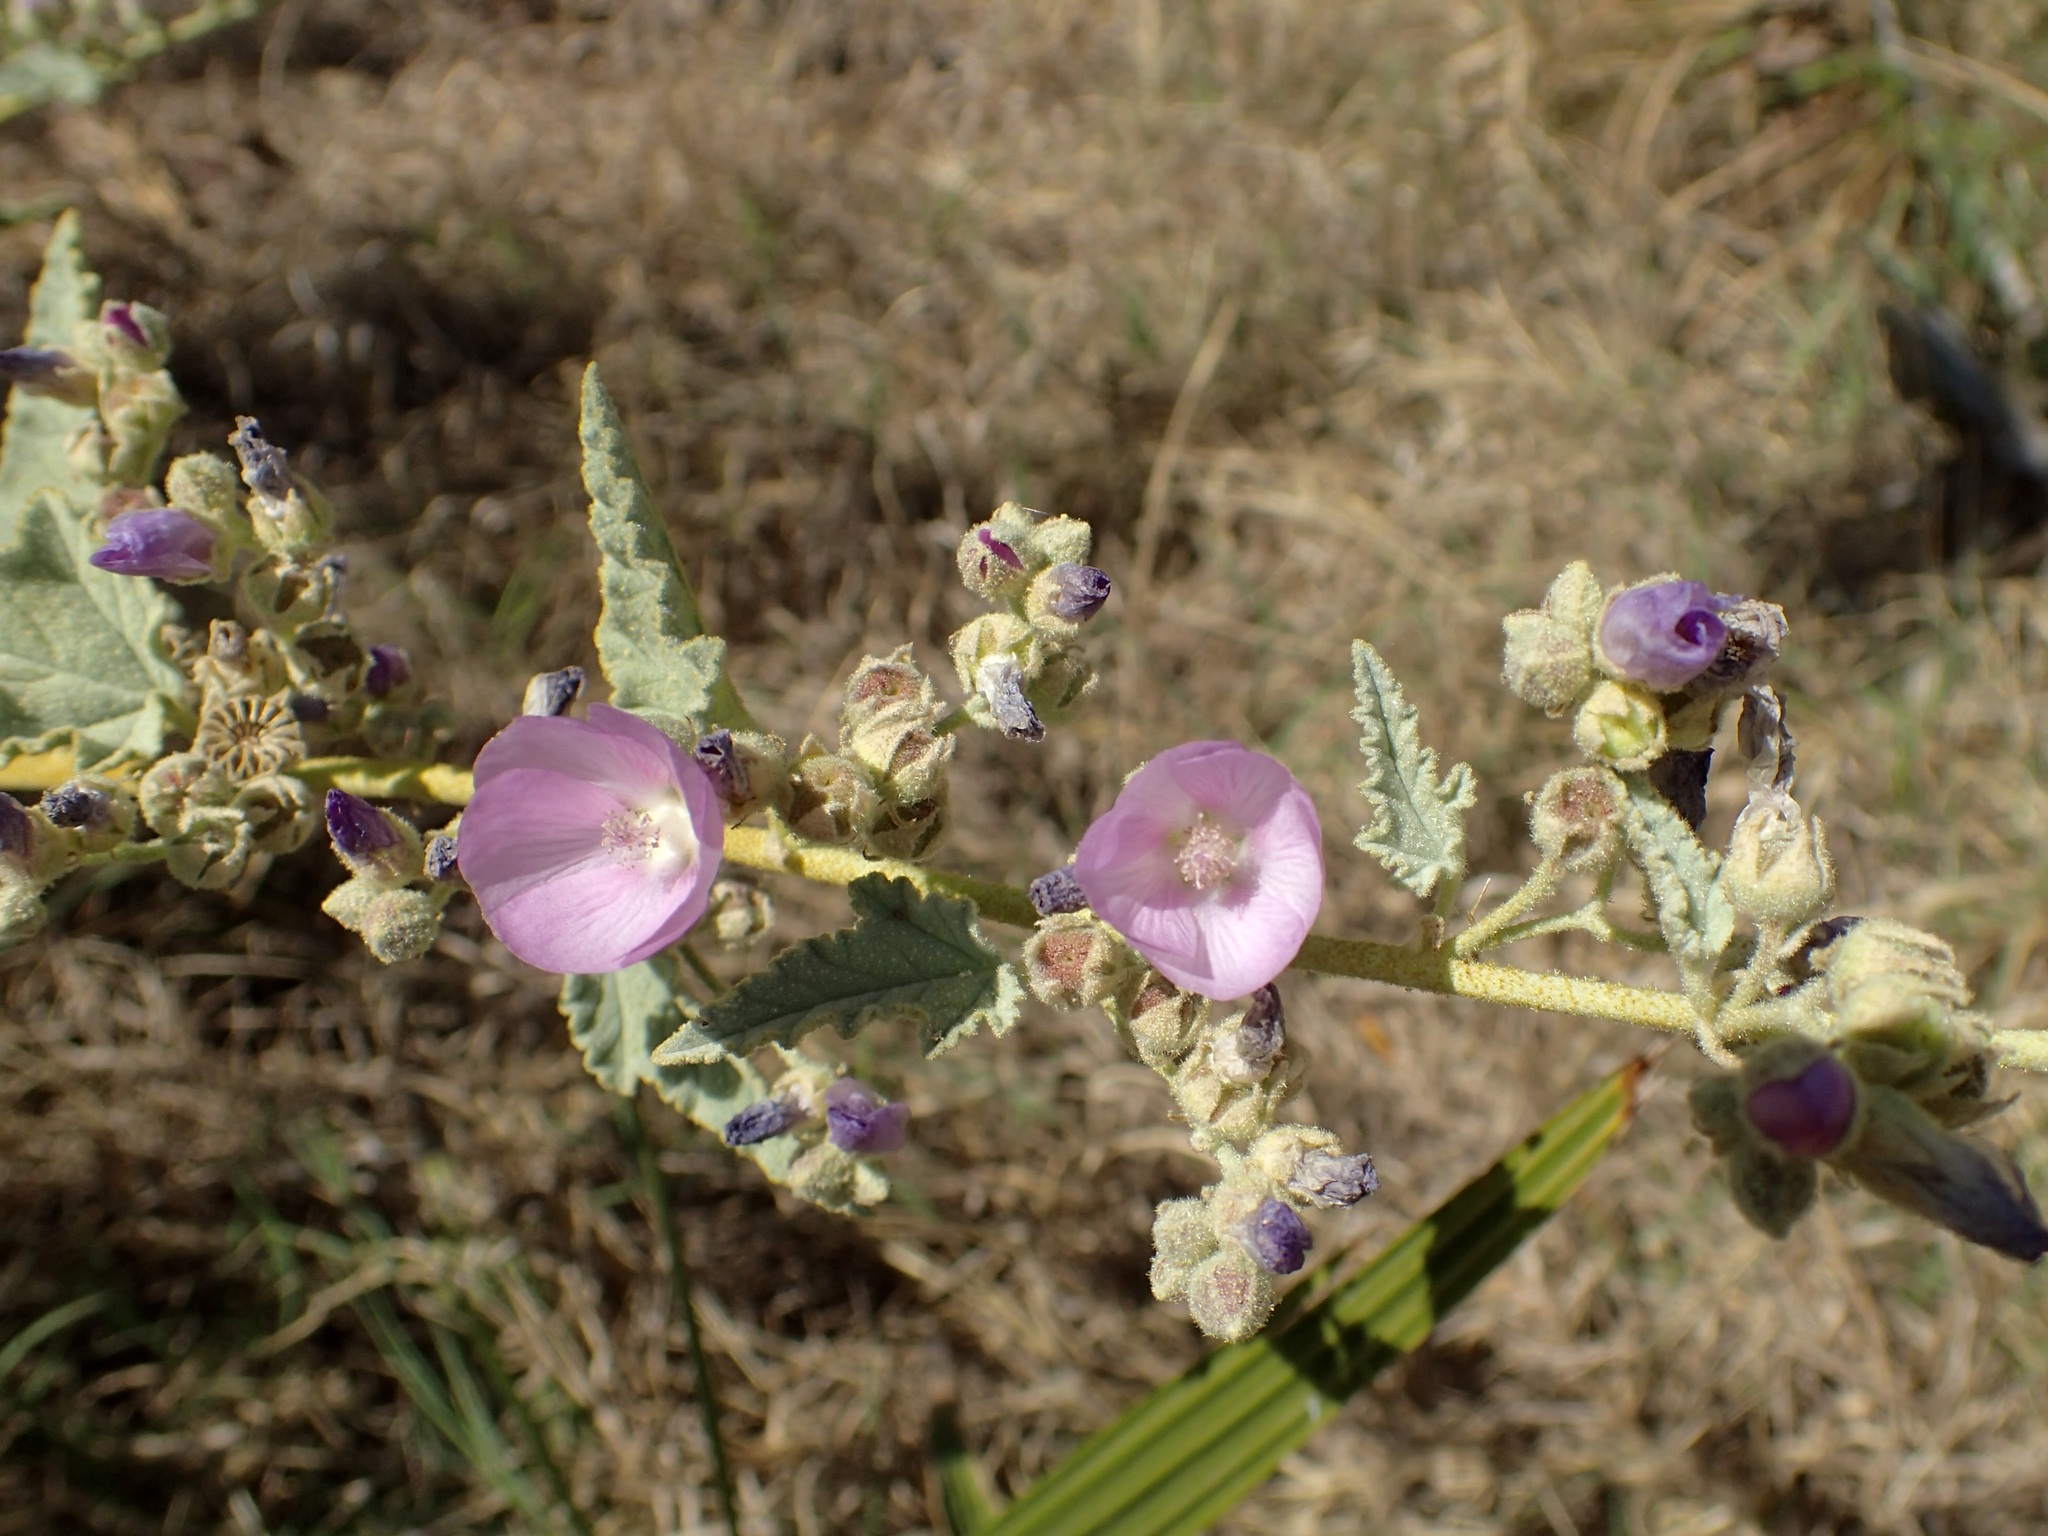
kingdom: Plantae
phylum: Tracheophyta
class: Magnoliopsida
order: Malvales
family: Malvaceae
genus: Sphaeralcea
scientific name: Sphaeralcea ambigua
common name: Apricot globe-mallow
